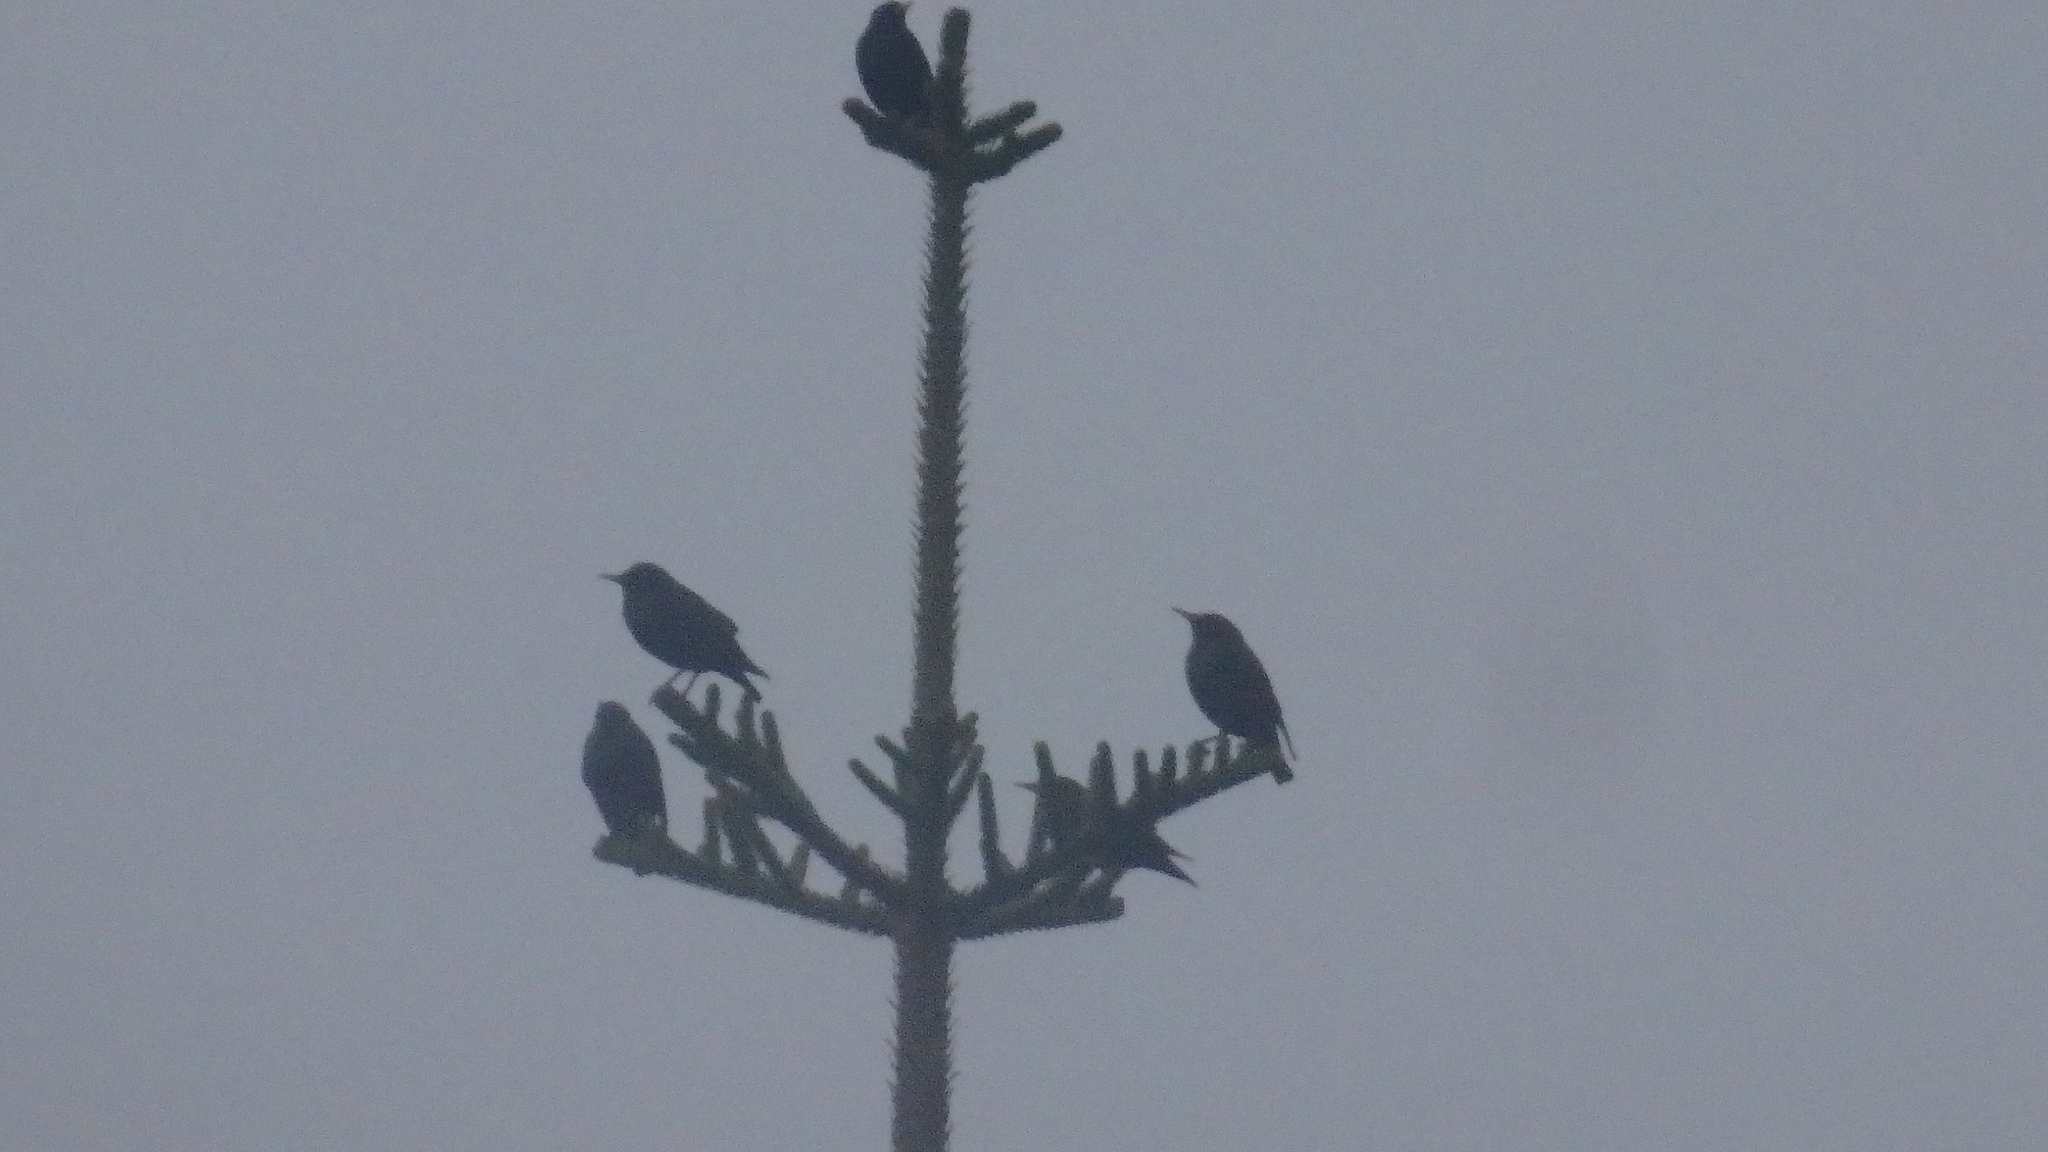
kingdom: Animalia
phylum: Chordata
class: Aves
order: Passeriformes
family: Sturnidae
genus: Sturnus
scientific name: Sturnus unicolor
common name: Spotless starling
